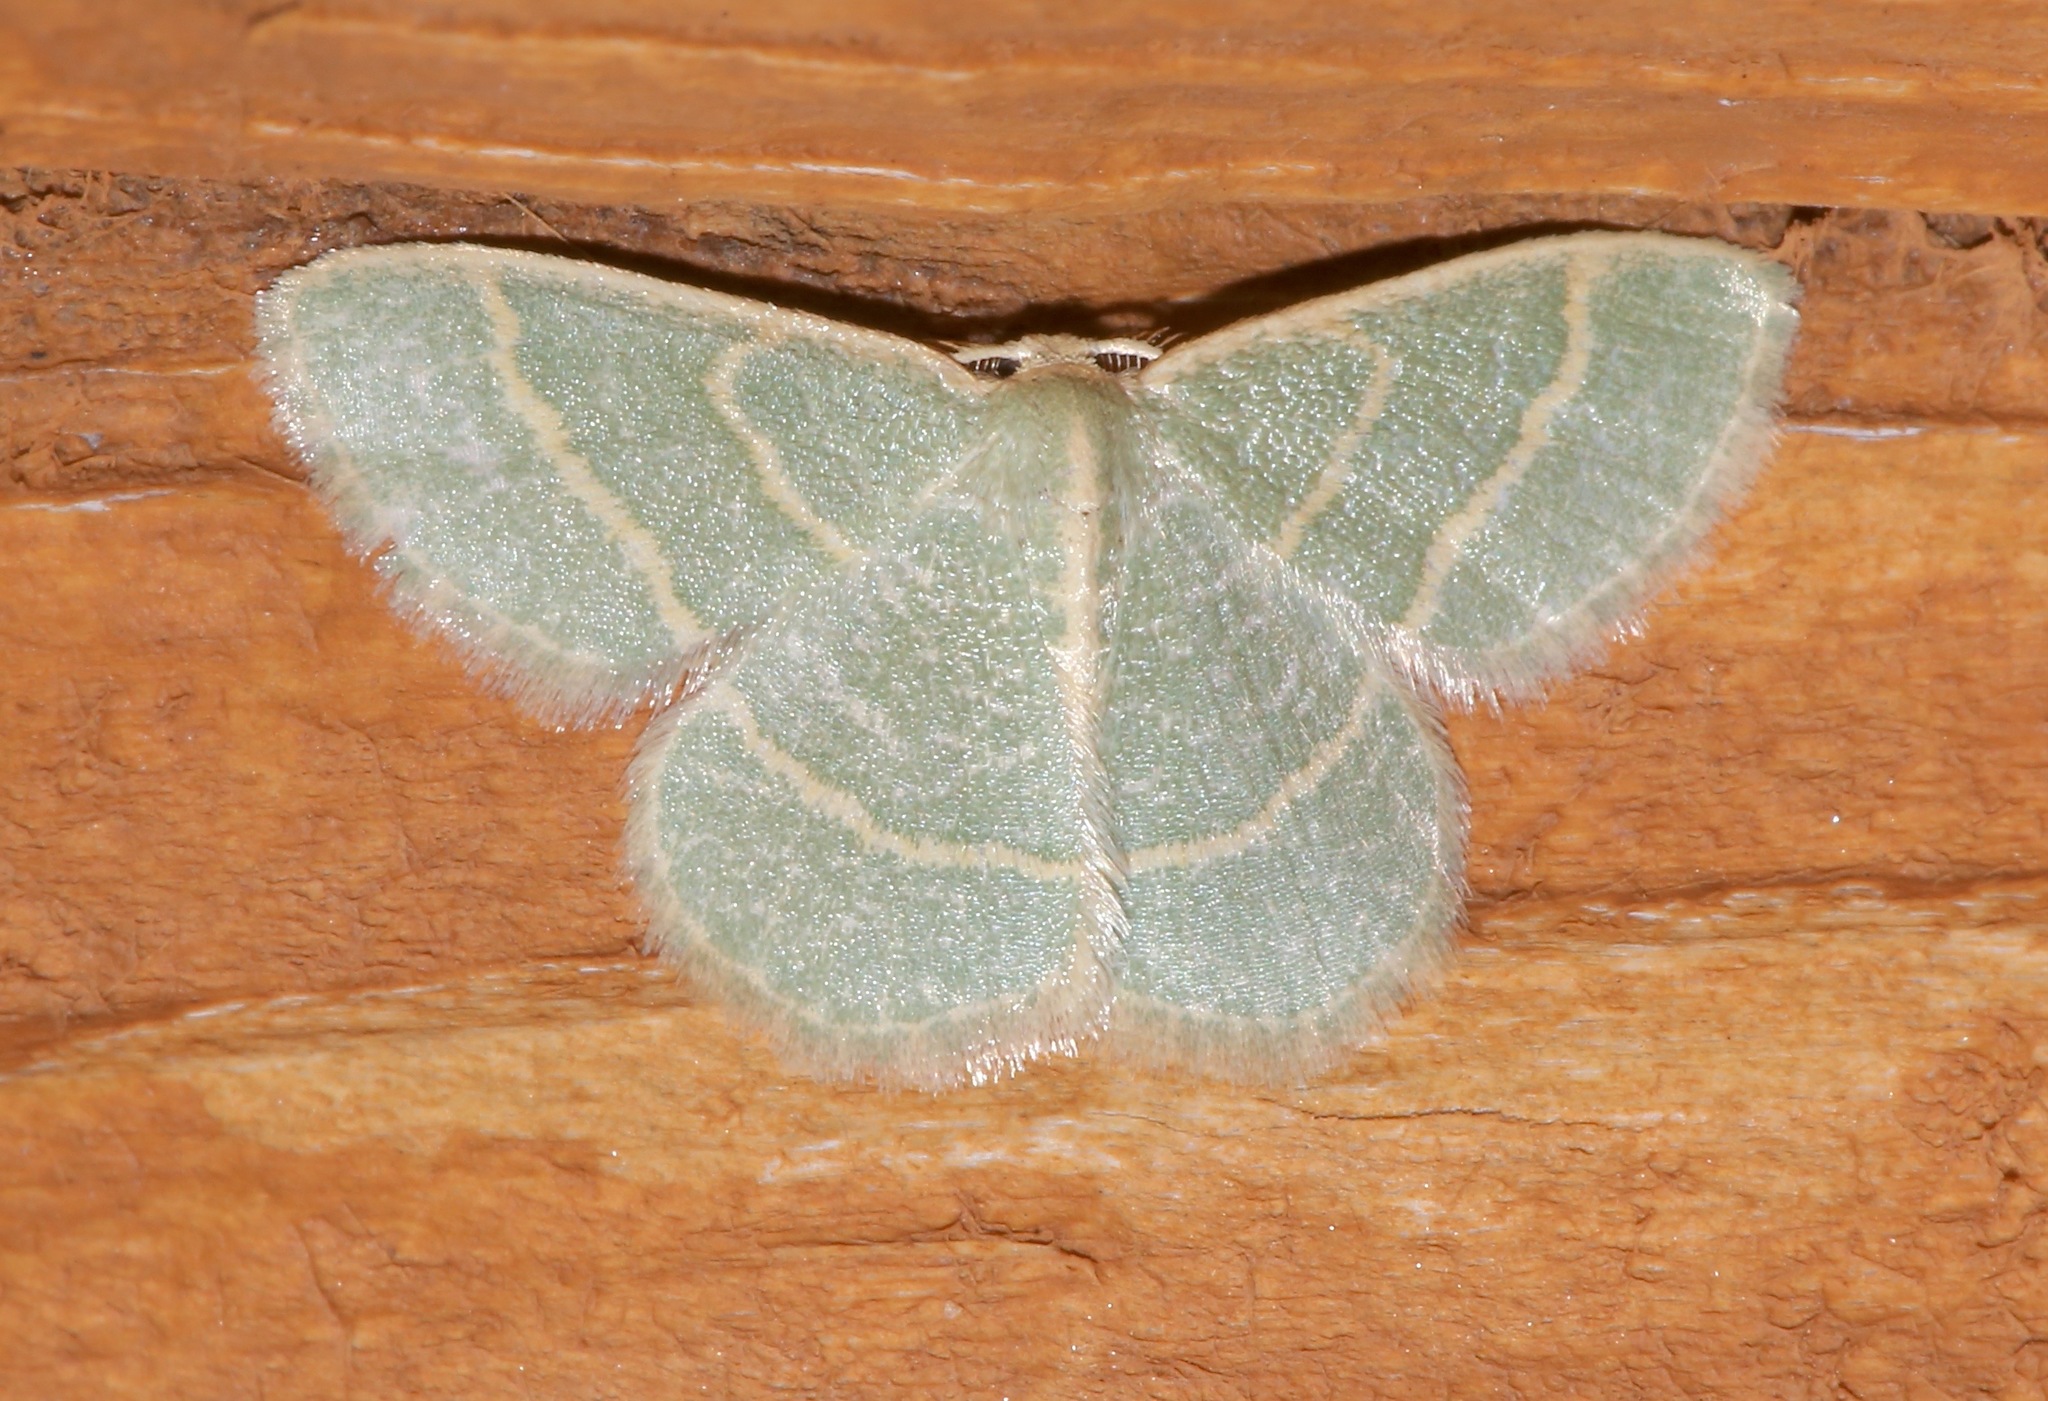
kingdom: Animalia
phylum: Arthropoda
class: Insecta
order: Lepidoptera
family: Geometridae
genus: Chlorochlamys
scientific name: Chlorochlamys chloroleucaria
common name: Blackberry looper
